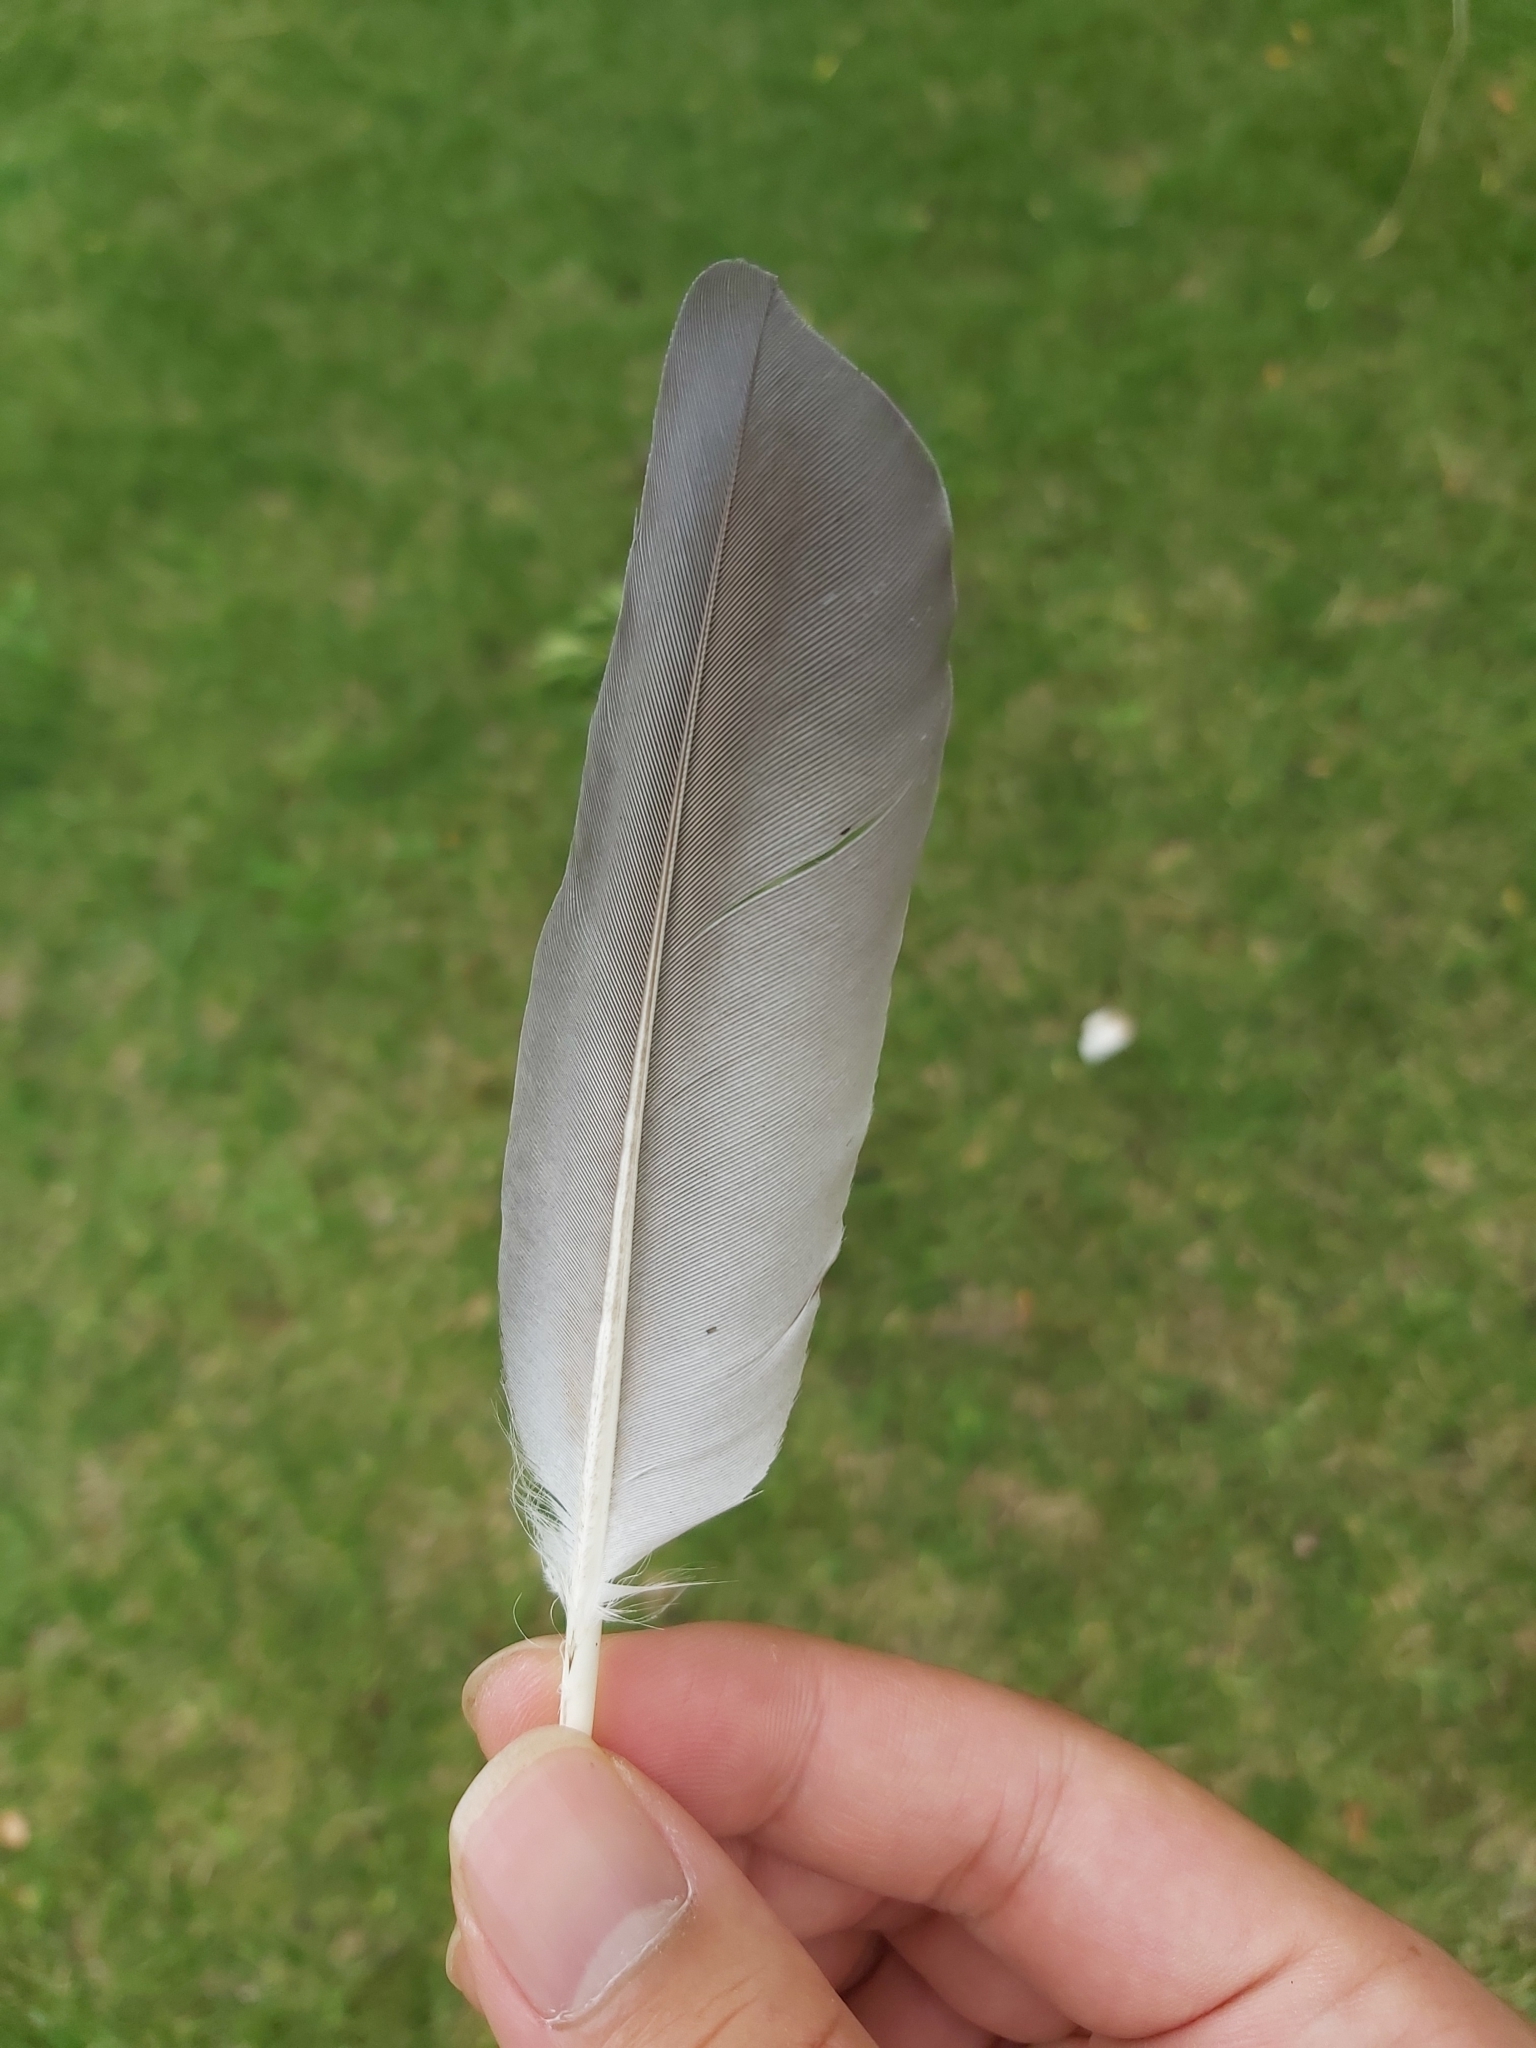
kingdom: Animalia
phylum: Chordata
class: Aves
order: Columbiformes
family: Columbidae
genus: Columba
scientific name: Columba livia
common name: Rock pigeon
